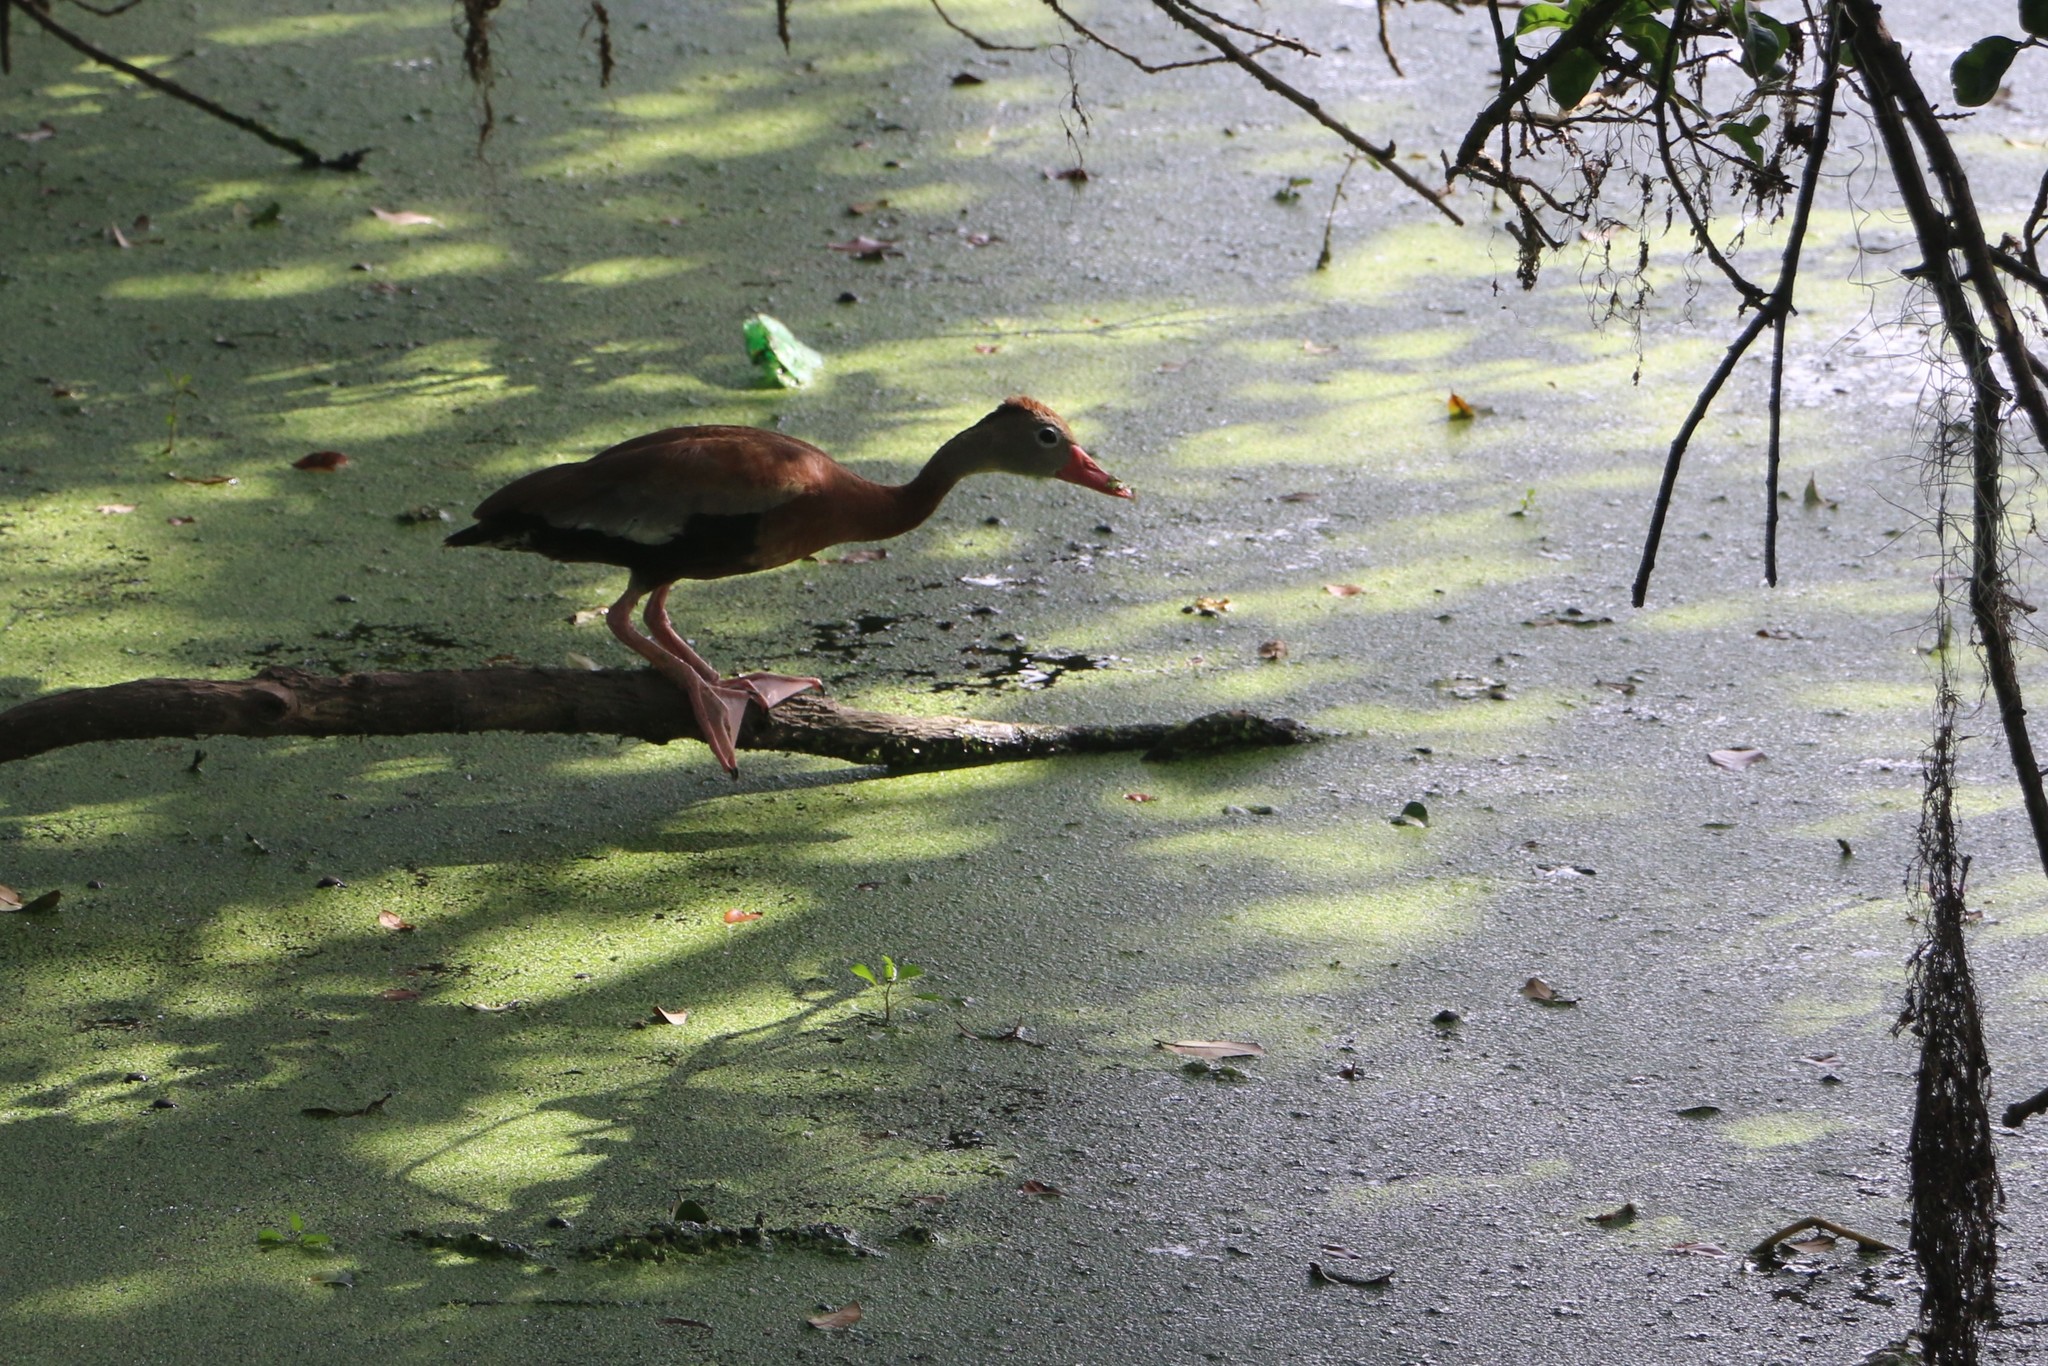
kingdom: Animalia
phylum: Chordata
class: Aves
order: Anseriformes
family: Anatidae
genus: Dendrocygna
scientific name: Dendrocygna autumnalis
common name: Black-bellied whistling duck
